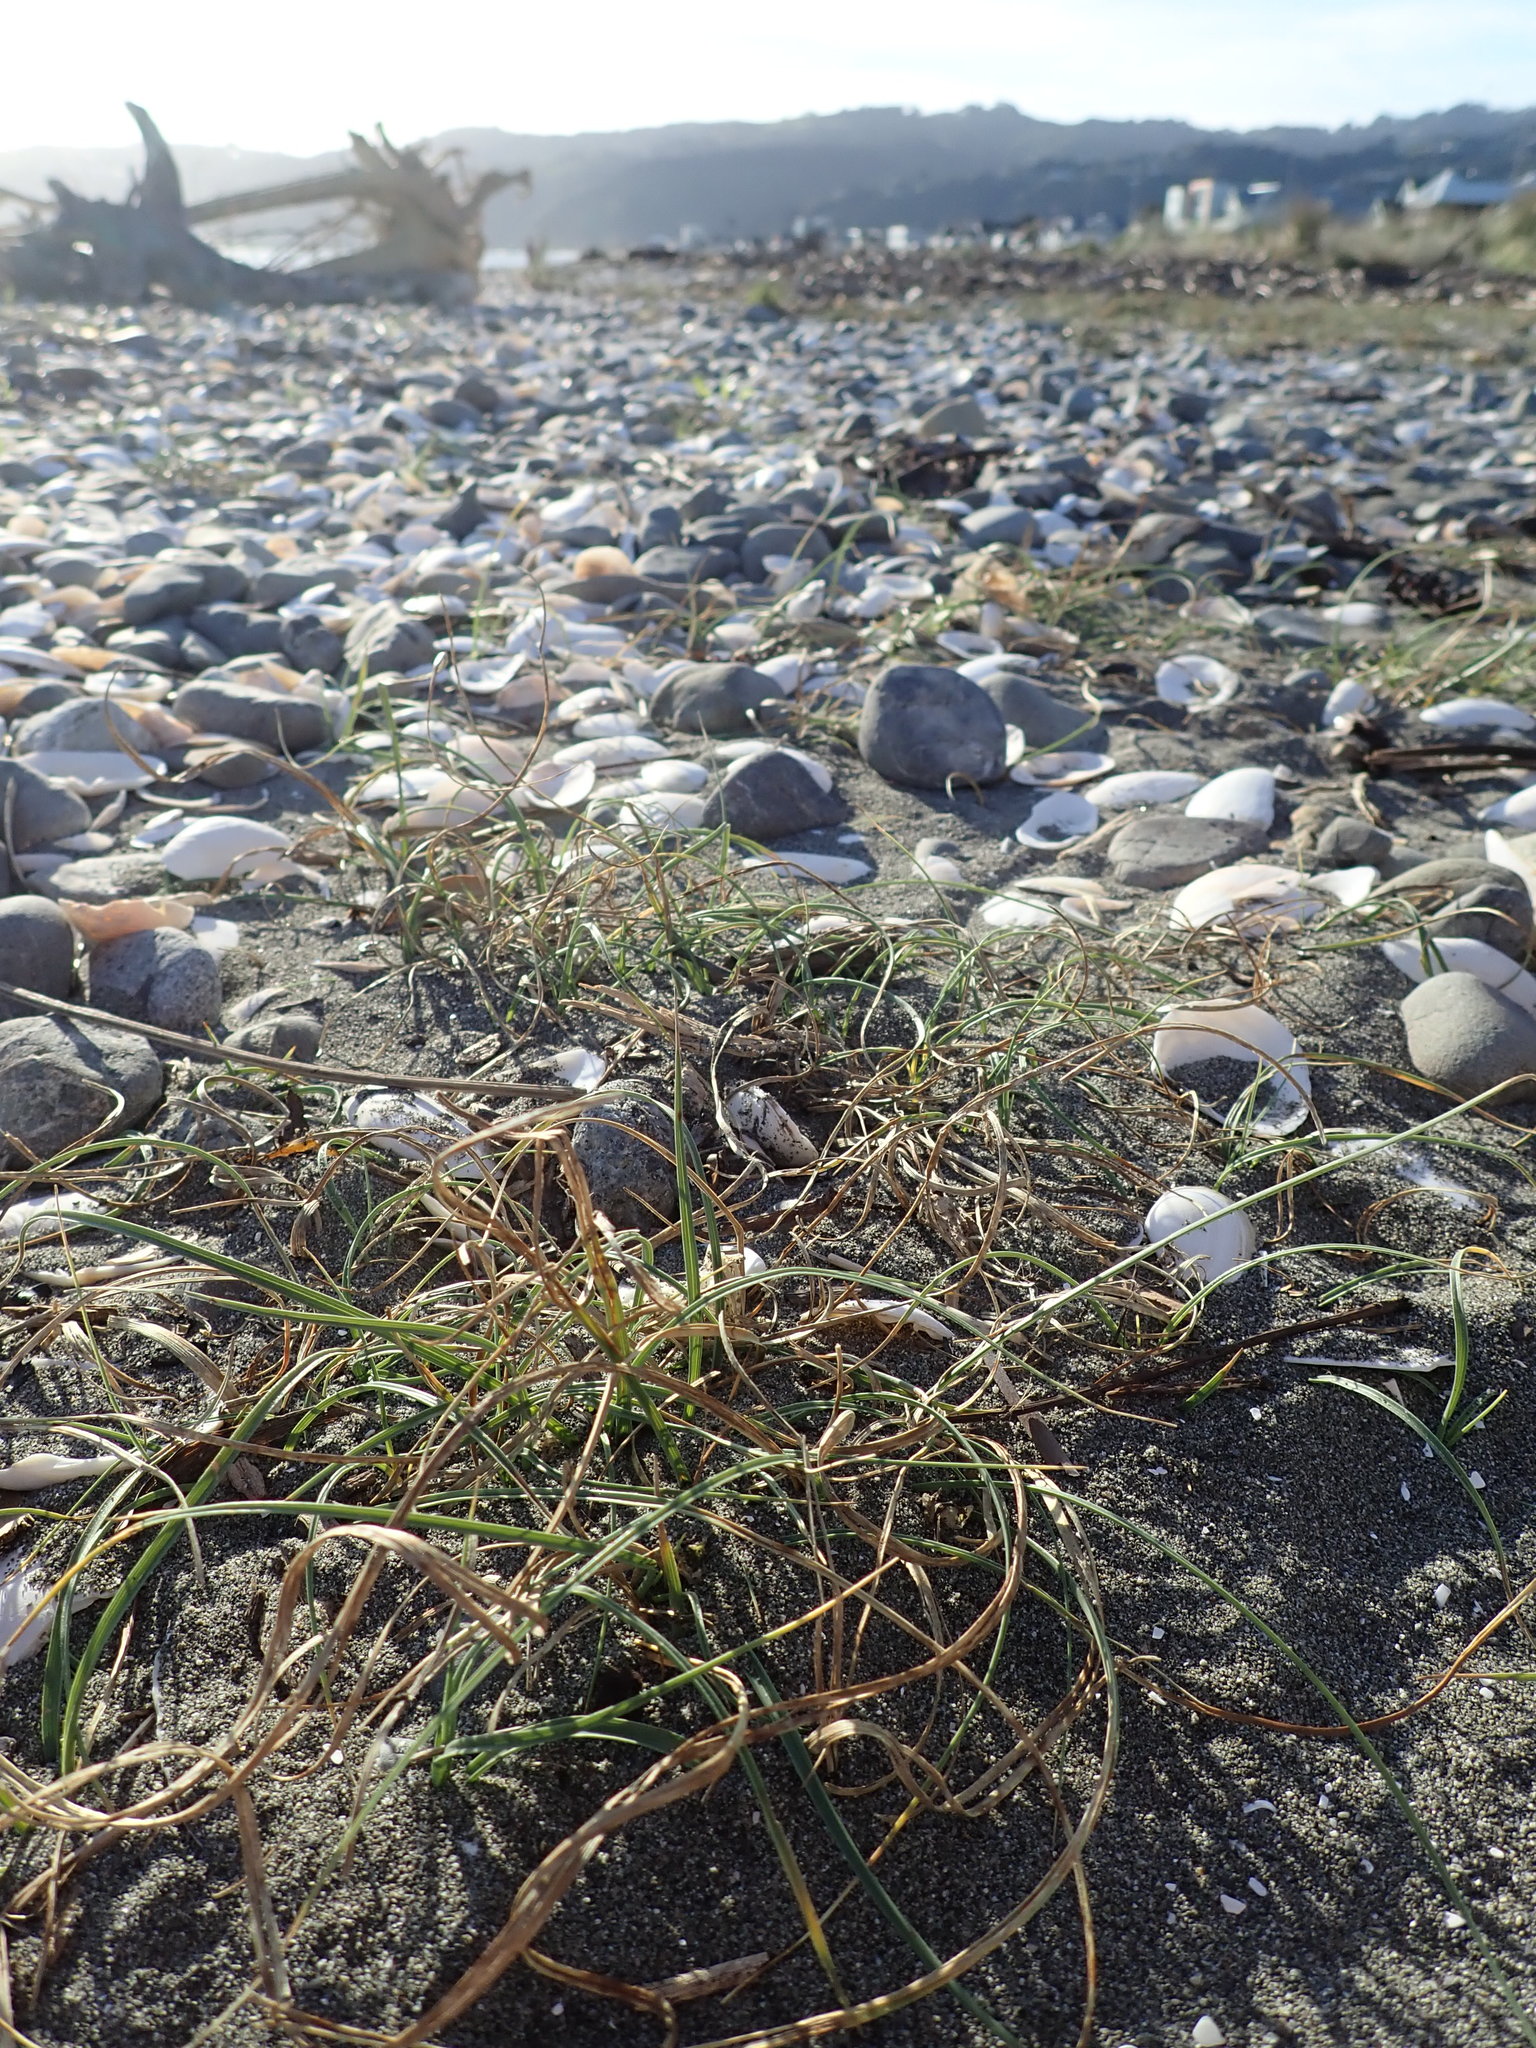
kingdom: Plantae
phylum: Tracheophyta
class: Liliopsida
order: Poales
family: Cyperaceae
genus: Carex
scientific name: Carex pumila
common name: Dwarf sedge
